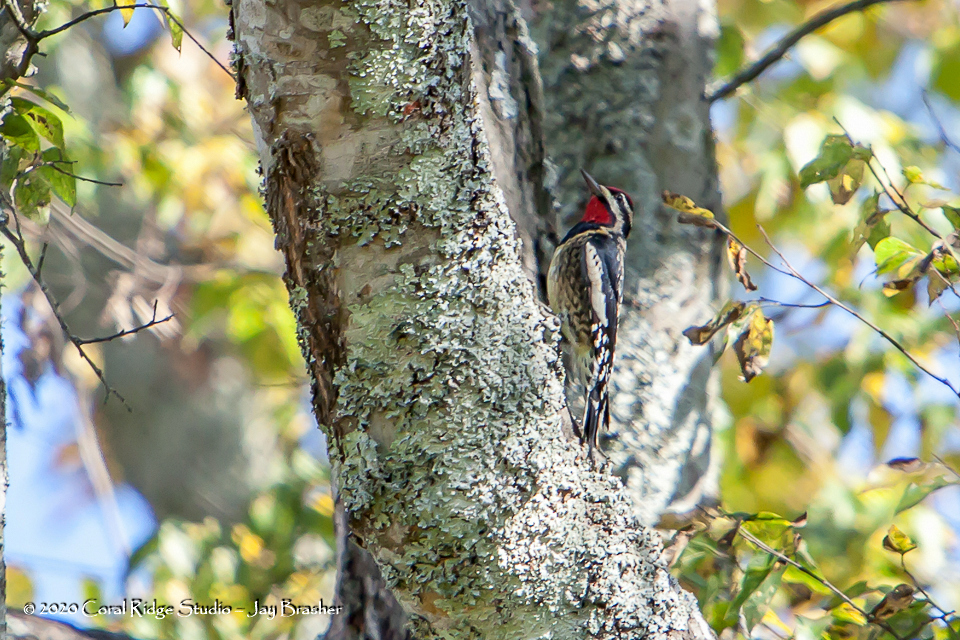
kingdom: Animalia
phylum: Chordata
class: Aves
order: Piciformes
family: Picidae
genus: Sphyrapicus
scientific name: Sphyrapicus varius
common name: Yellow-bellied sapsucker
